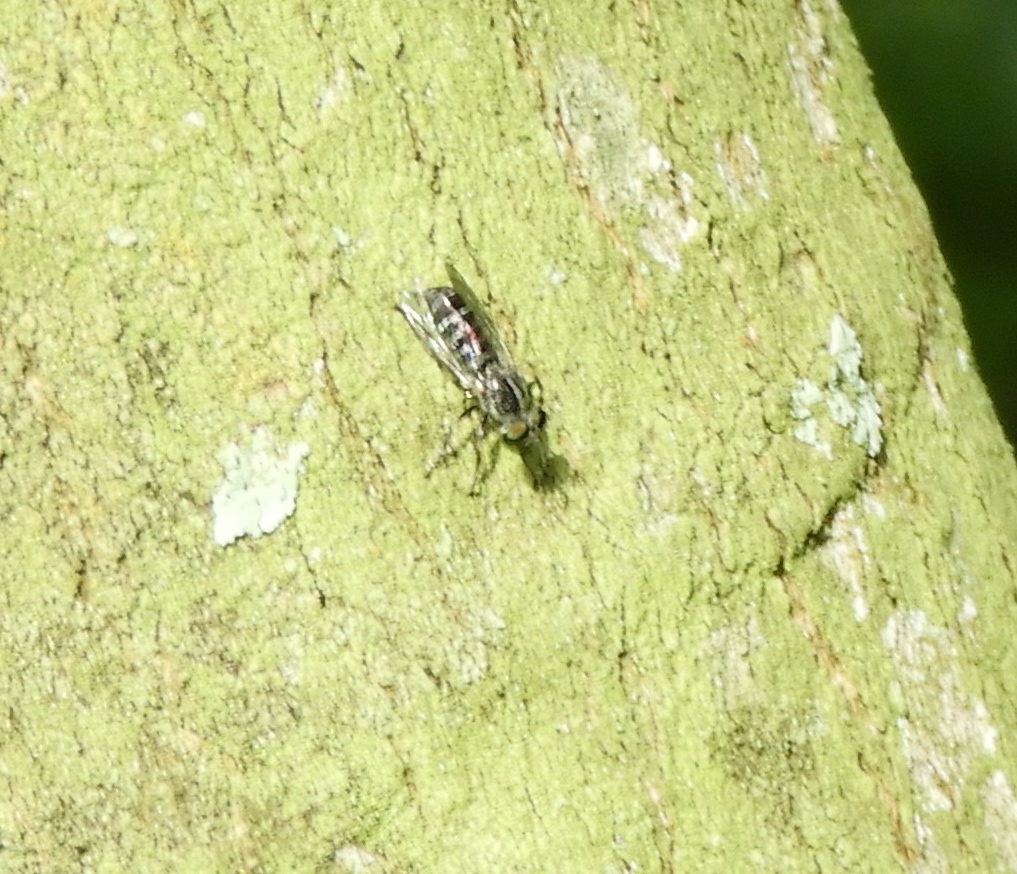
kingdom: Animalia
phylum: Arthropoda
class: Insecta
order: Diptera
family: Asilidae
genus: Atomosia
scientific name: Atomosia
